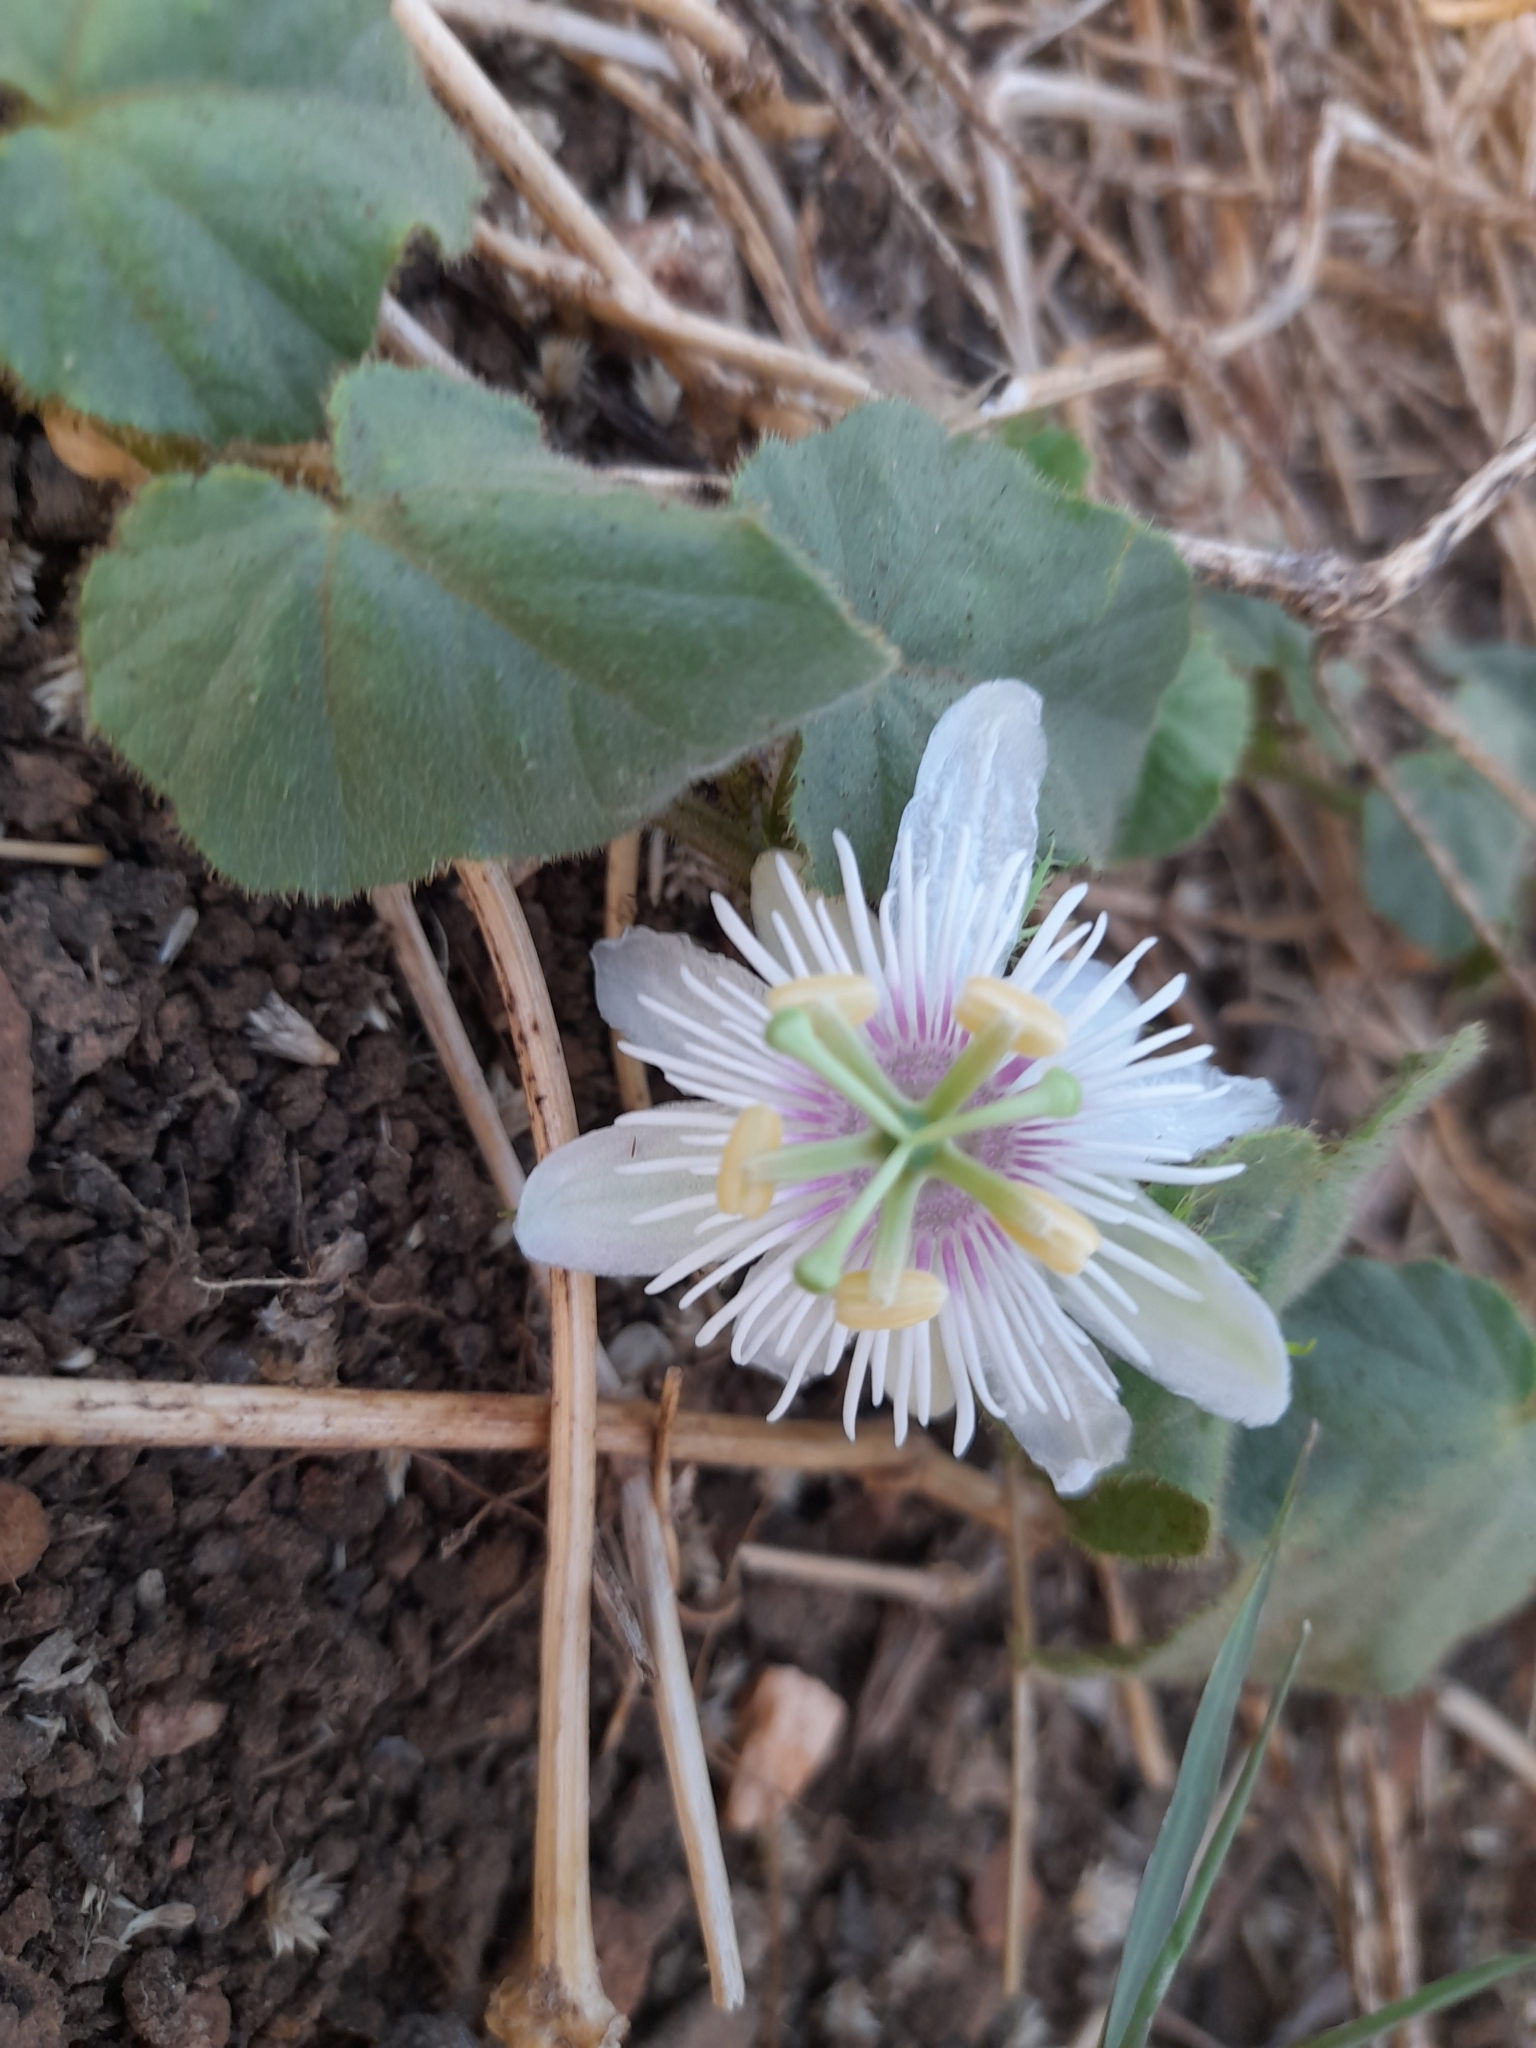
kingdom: Plantae
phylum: Tracheophyta
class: Magnoliopsida
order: Malpighiales
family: Passifloraceae
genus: Passiflora
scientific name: Passiflora vesicaria
